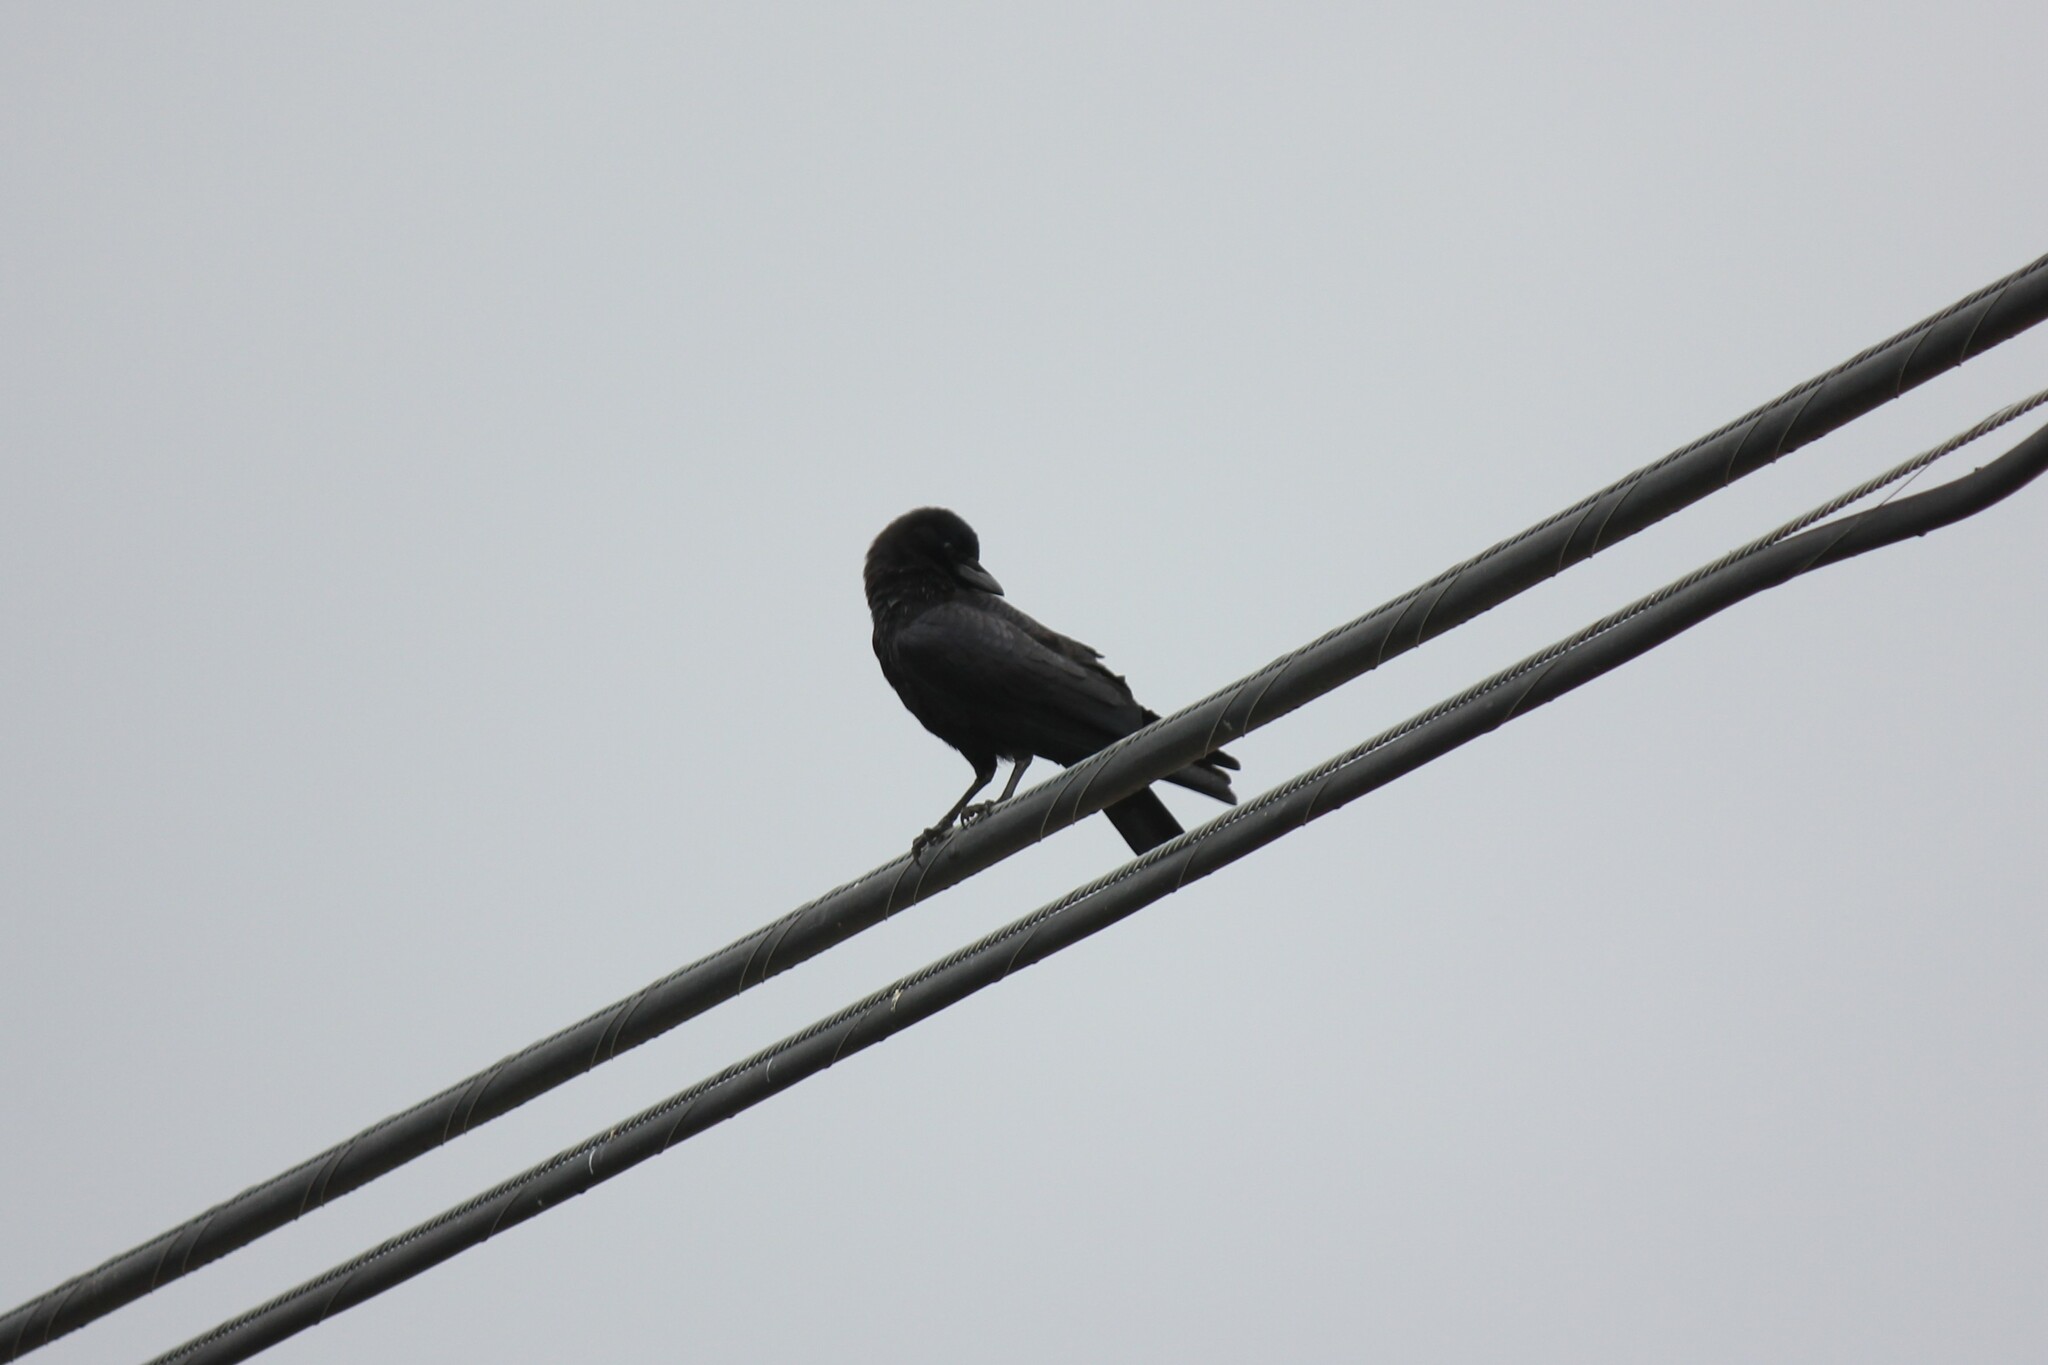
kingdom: Animalia
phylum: Chordata
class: Aves
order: Passeriformes
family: Corvidae
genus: Corvus
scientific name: Corvus brachyrhynchos
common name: American crow
